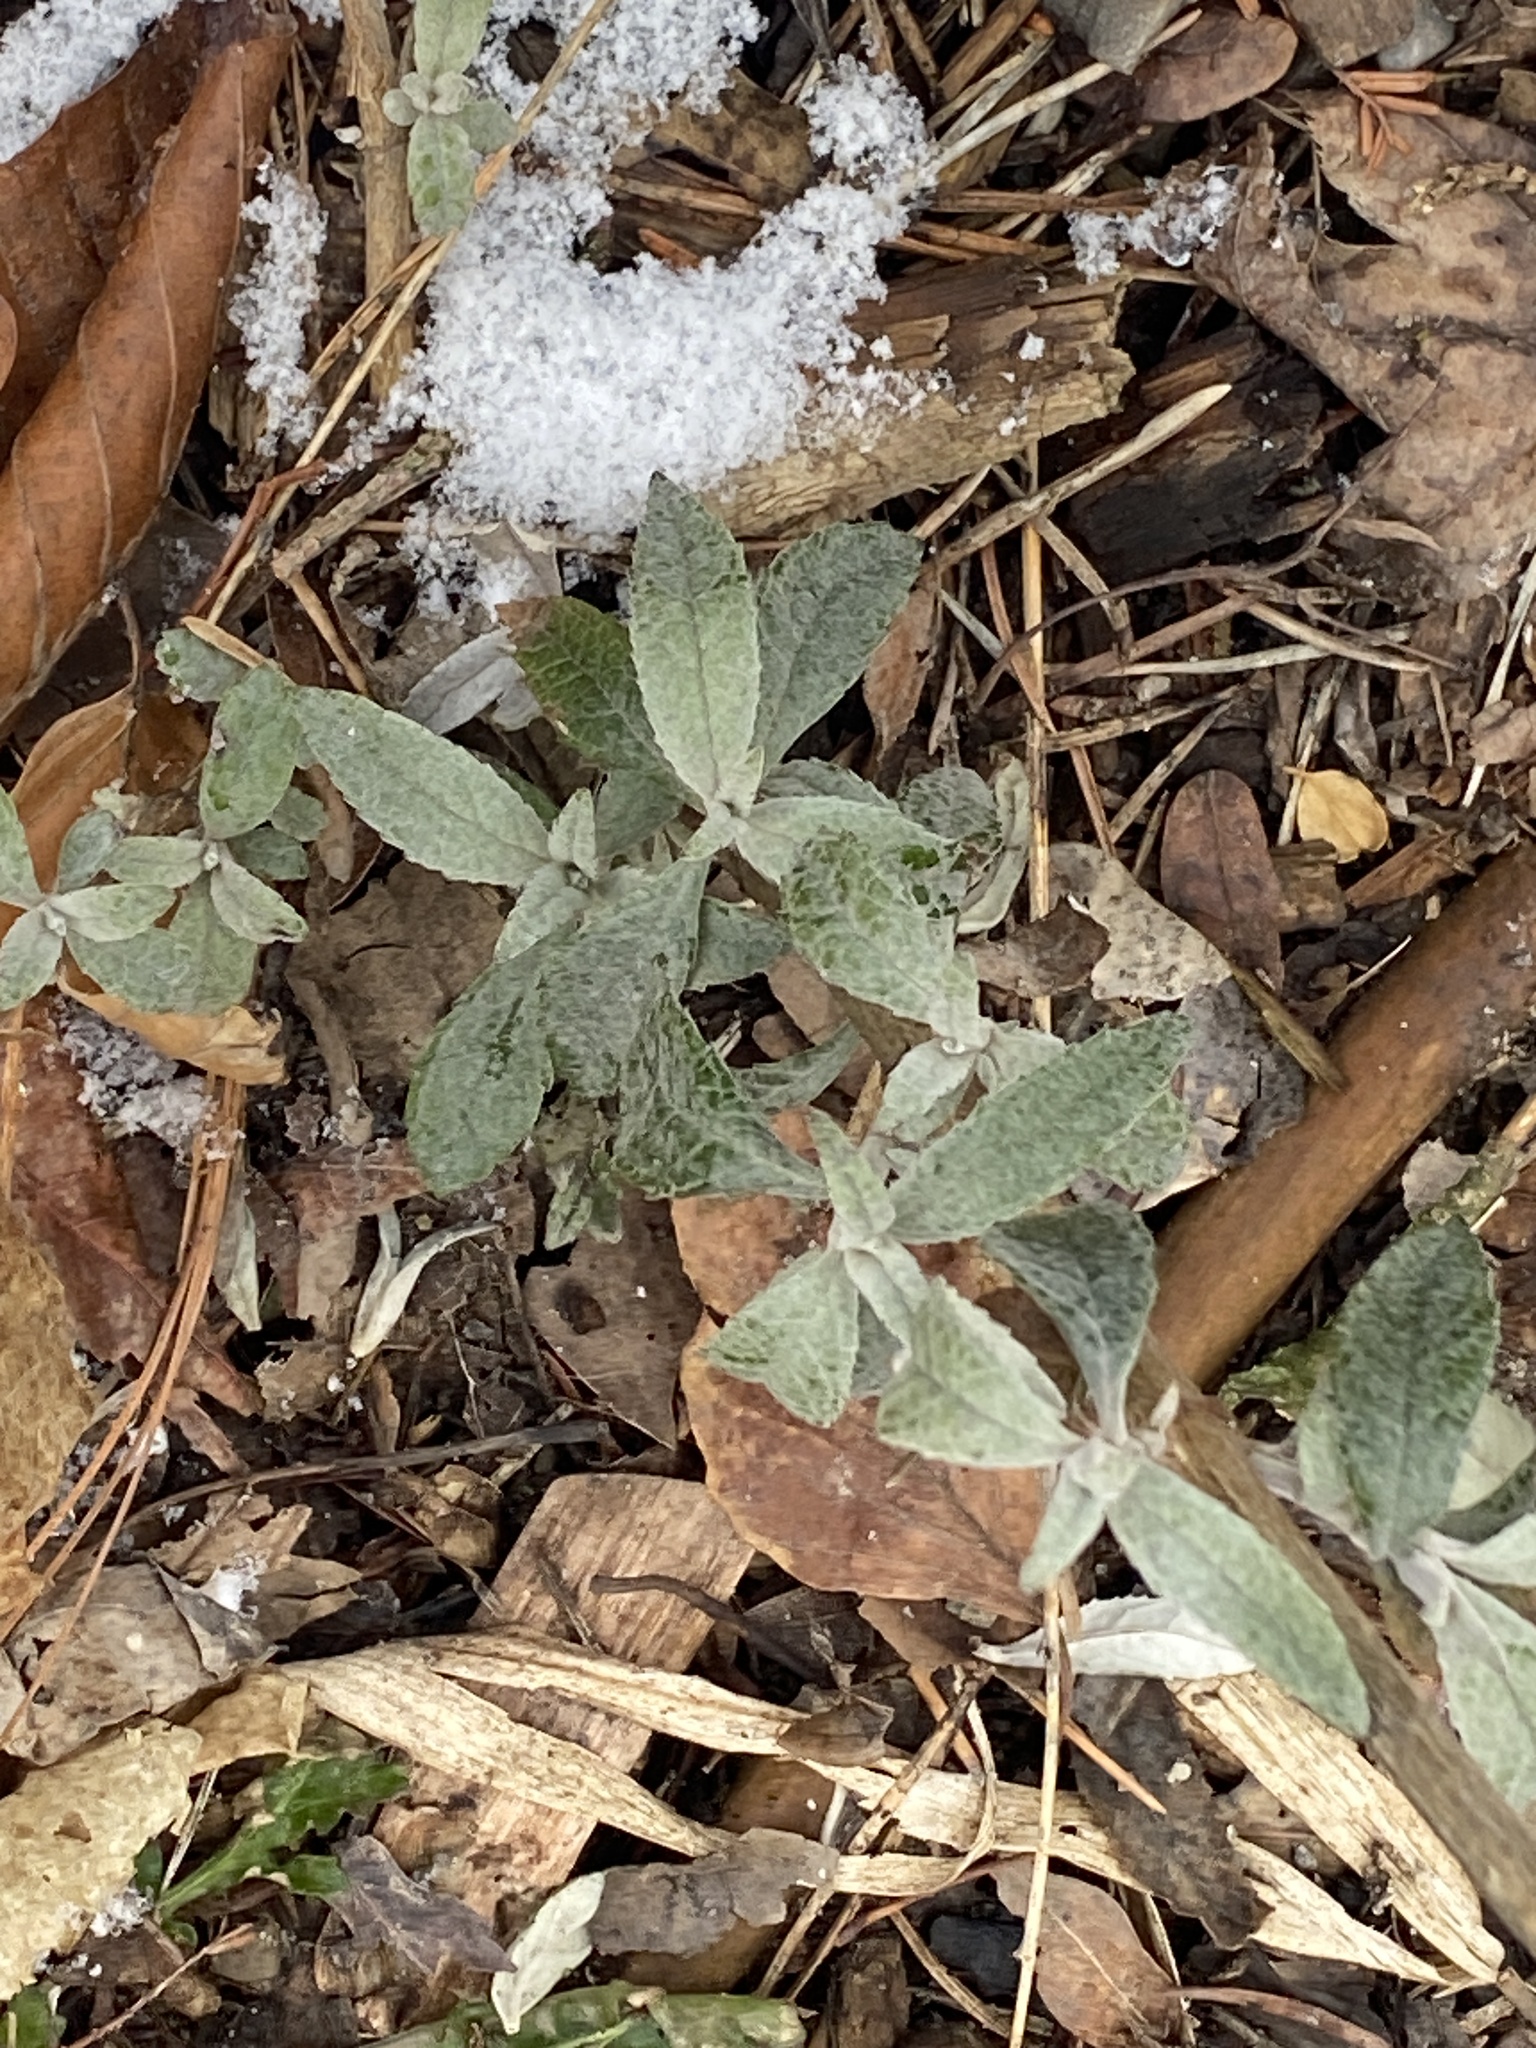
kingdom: Plantae
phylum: Tracheophyta
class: Magnoliopsida
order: Lamiales
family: Scrophulariaceae
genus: Buddleja
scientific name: Buddleja davidii
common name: Butterfly-bush
